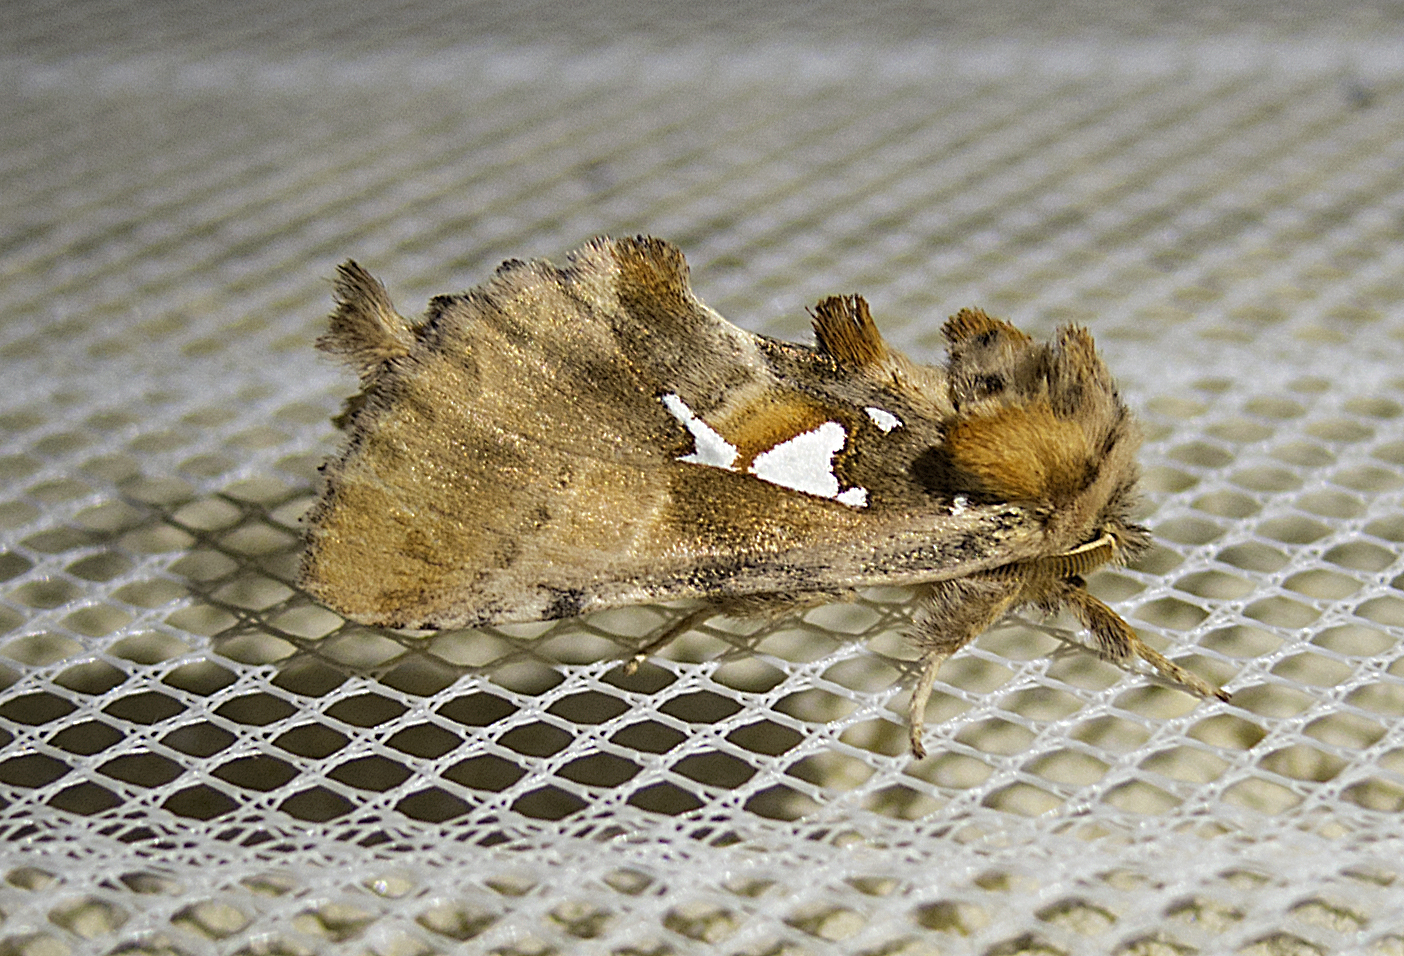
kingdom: Animalia
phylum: Arthropoda
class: Insecta
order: Lepidoptera
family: Notodontidae
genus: Spatalia
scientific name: Spatalia argentina
